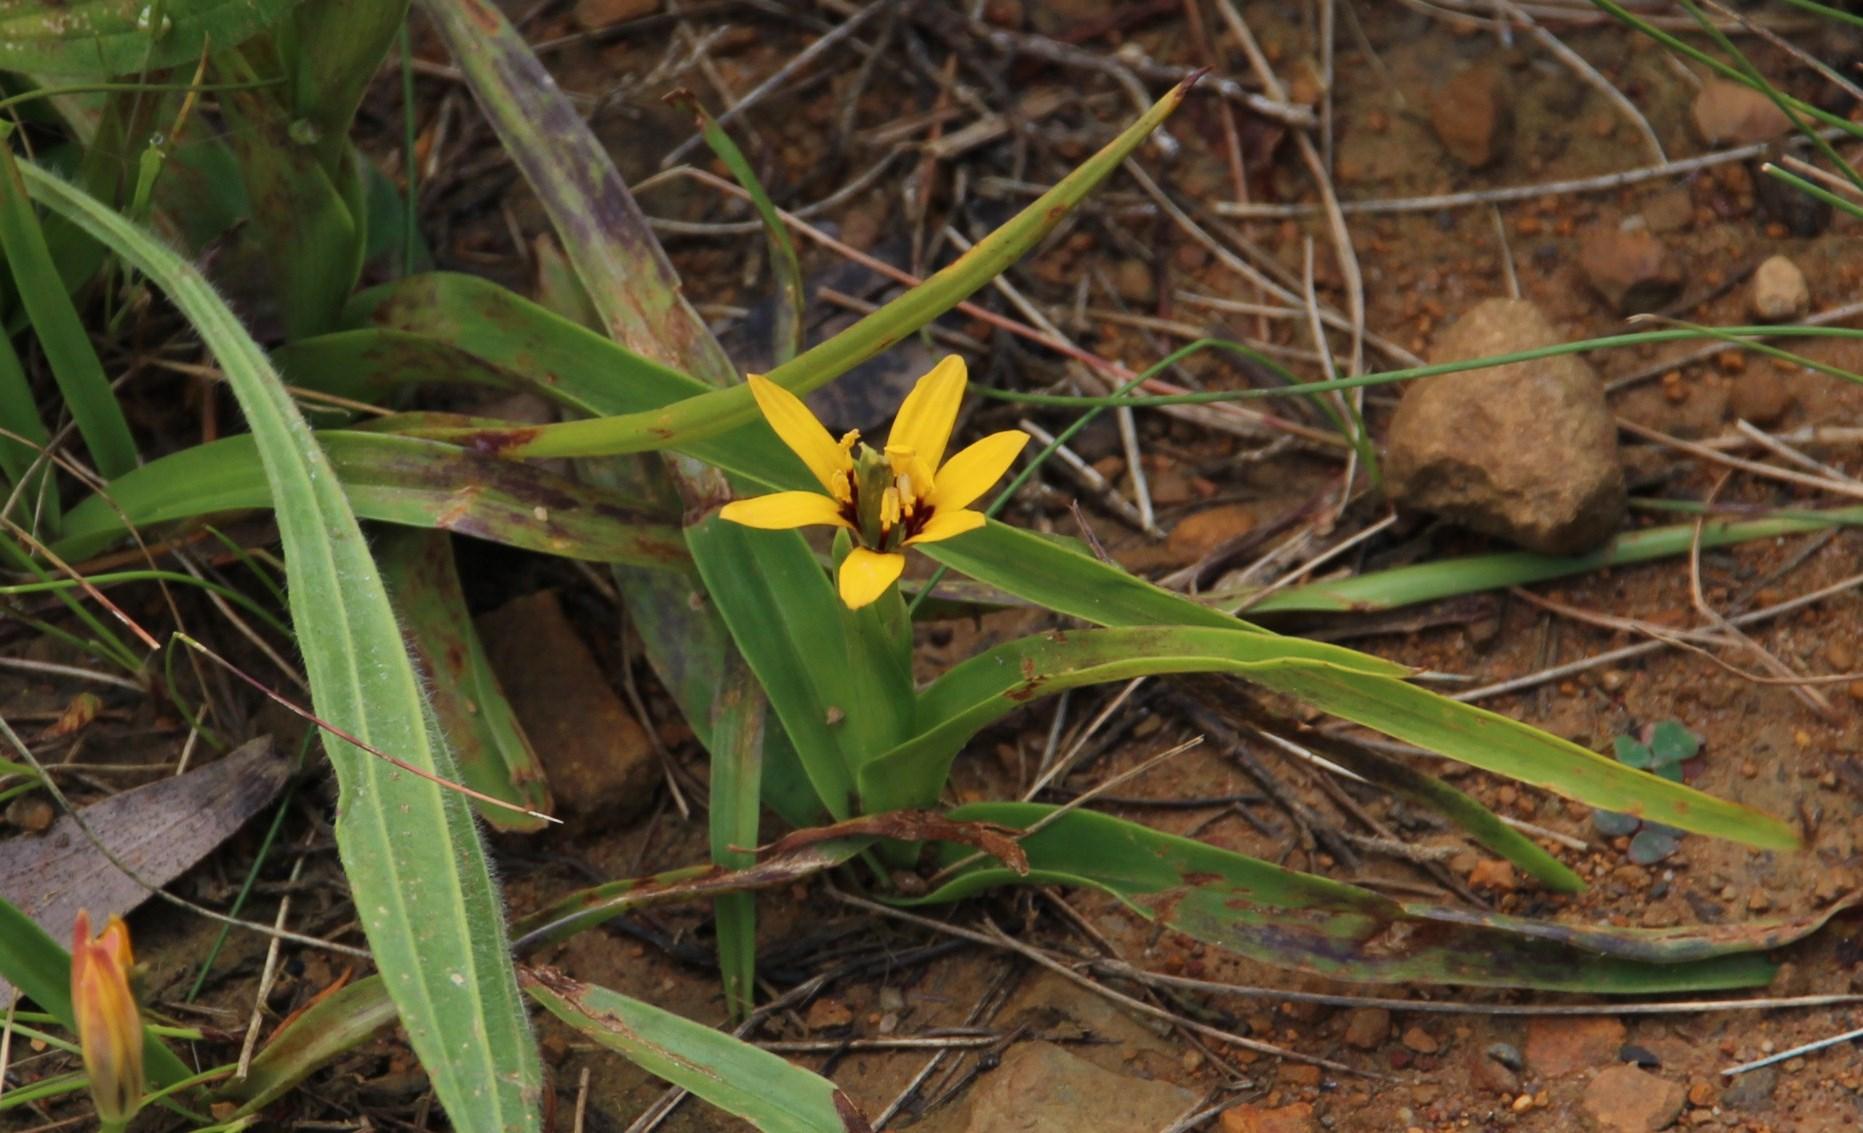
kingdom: Plantae
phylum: Tracheophyta
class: Liliopsida
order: Liliales
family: Colchicaceae
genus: Baeometra
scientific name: Baeometra uniflora
